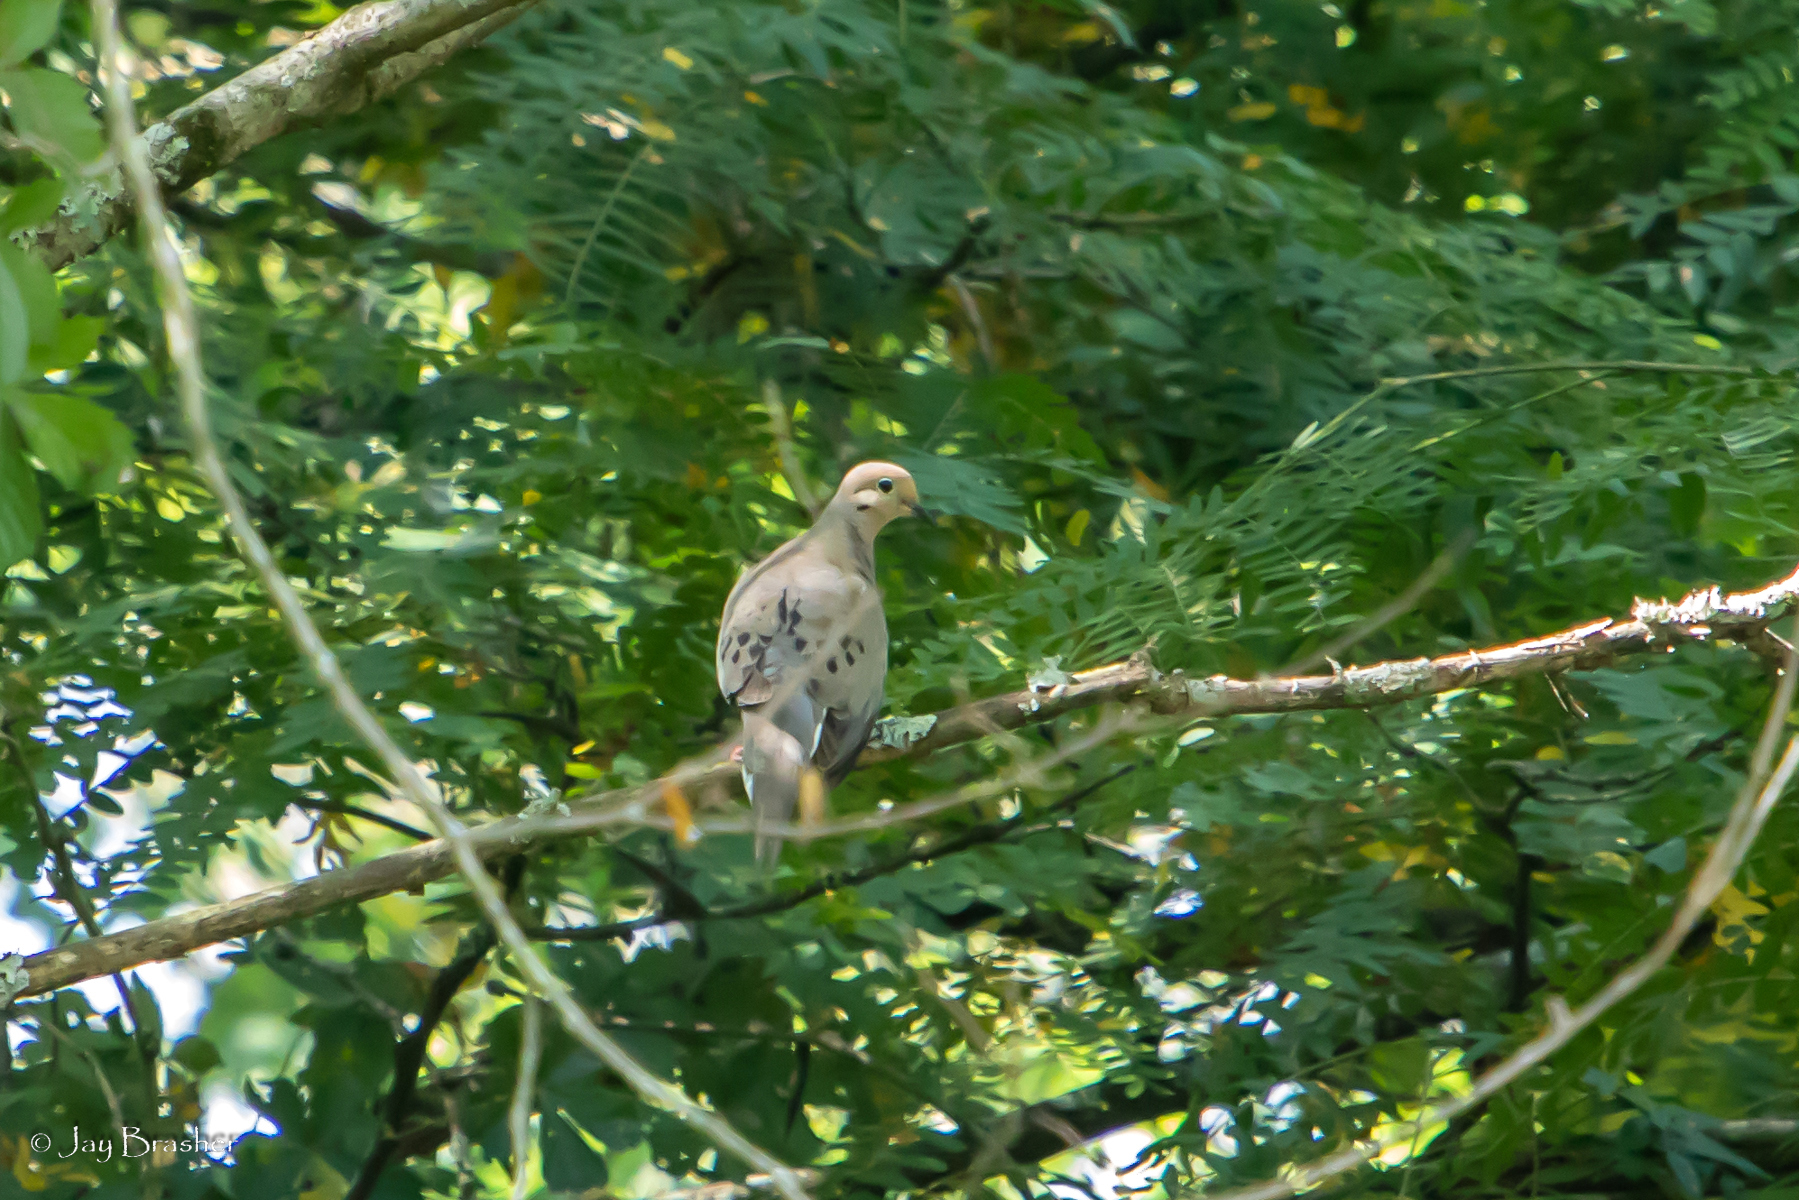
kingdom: Animalia
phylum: Chordata
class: Aves
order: Columbiformes
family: Columbidae
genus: Zenaida
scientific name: Zenaida macroura
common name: Mourning dove
